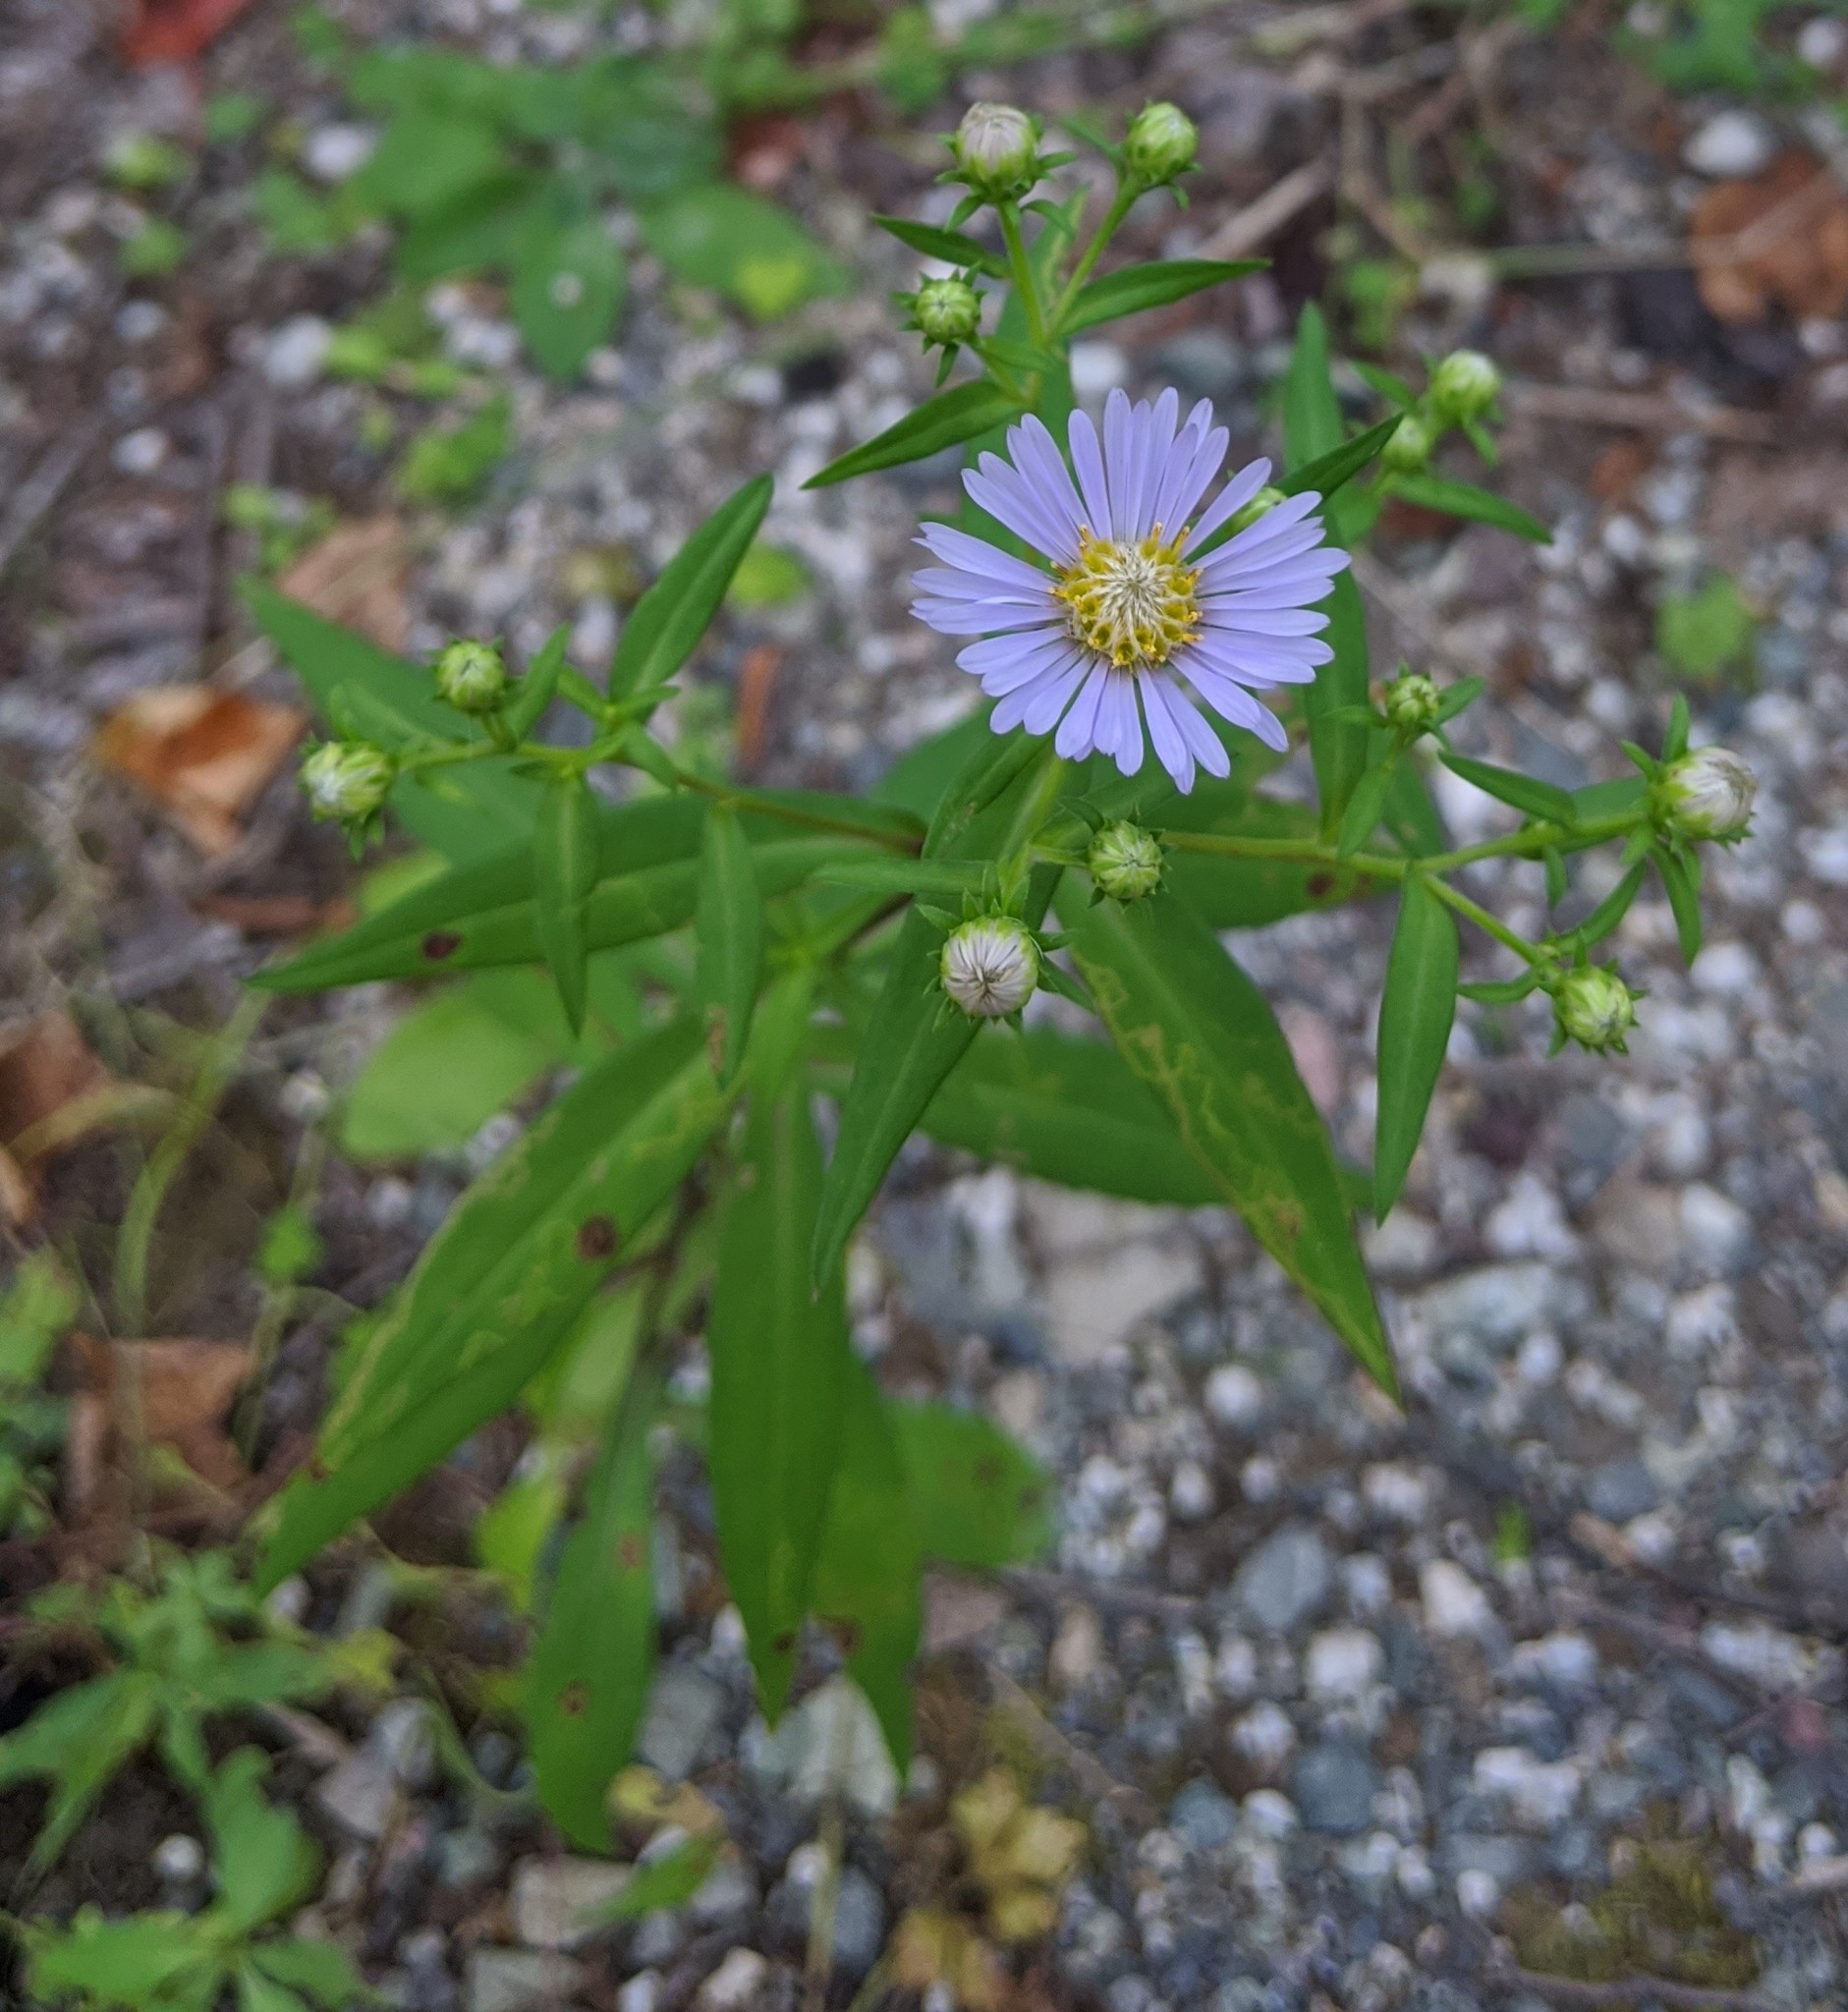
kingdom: Plantae
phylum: Tracheophyta
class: Magnoliopsida
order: Asterales
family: Asteraceae
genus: Symphyotrichum
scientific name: Symphyotrichum novi-belgii
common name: Michaelmas daisy
